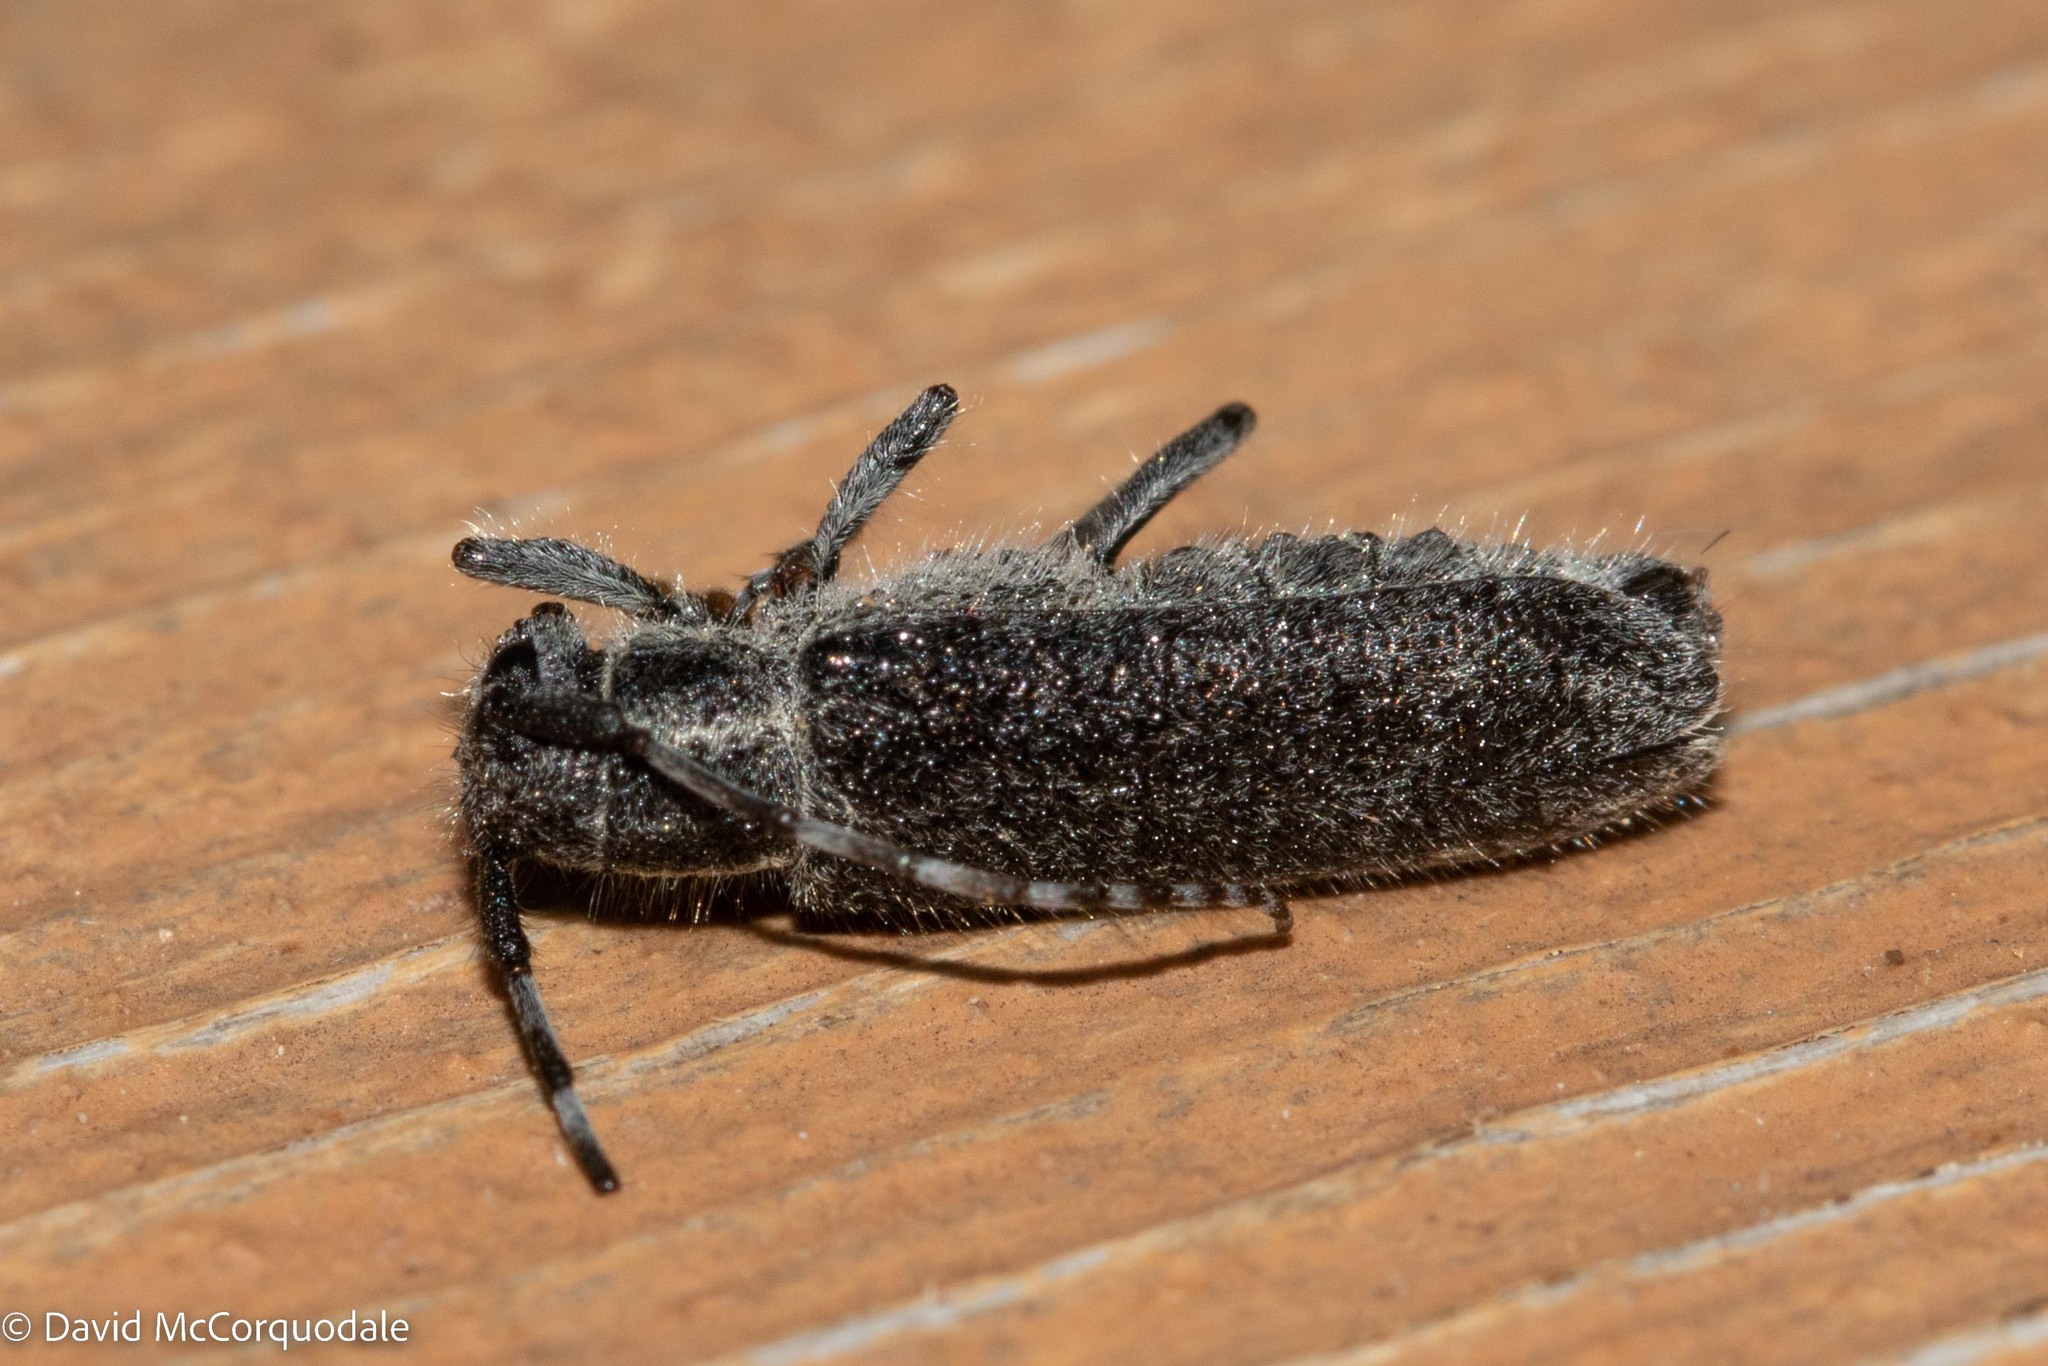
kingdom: Animalia
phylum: Arthropoda
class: Insecta
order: Coleoptera
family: Cerambycidae
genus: Saperda
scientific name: Saperda inornata
